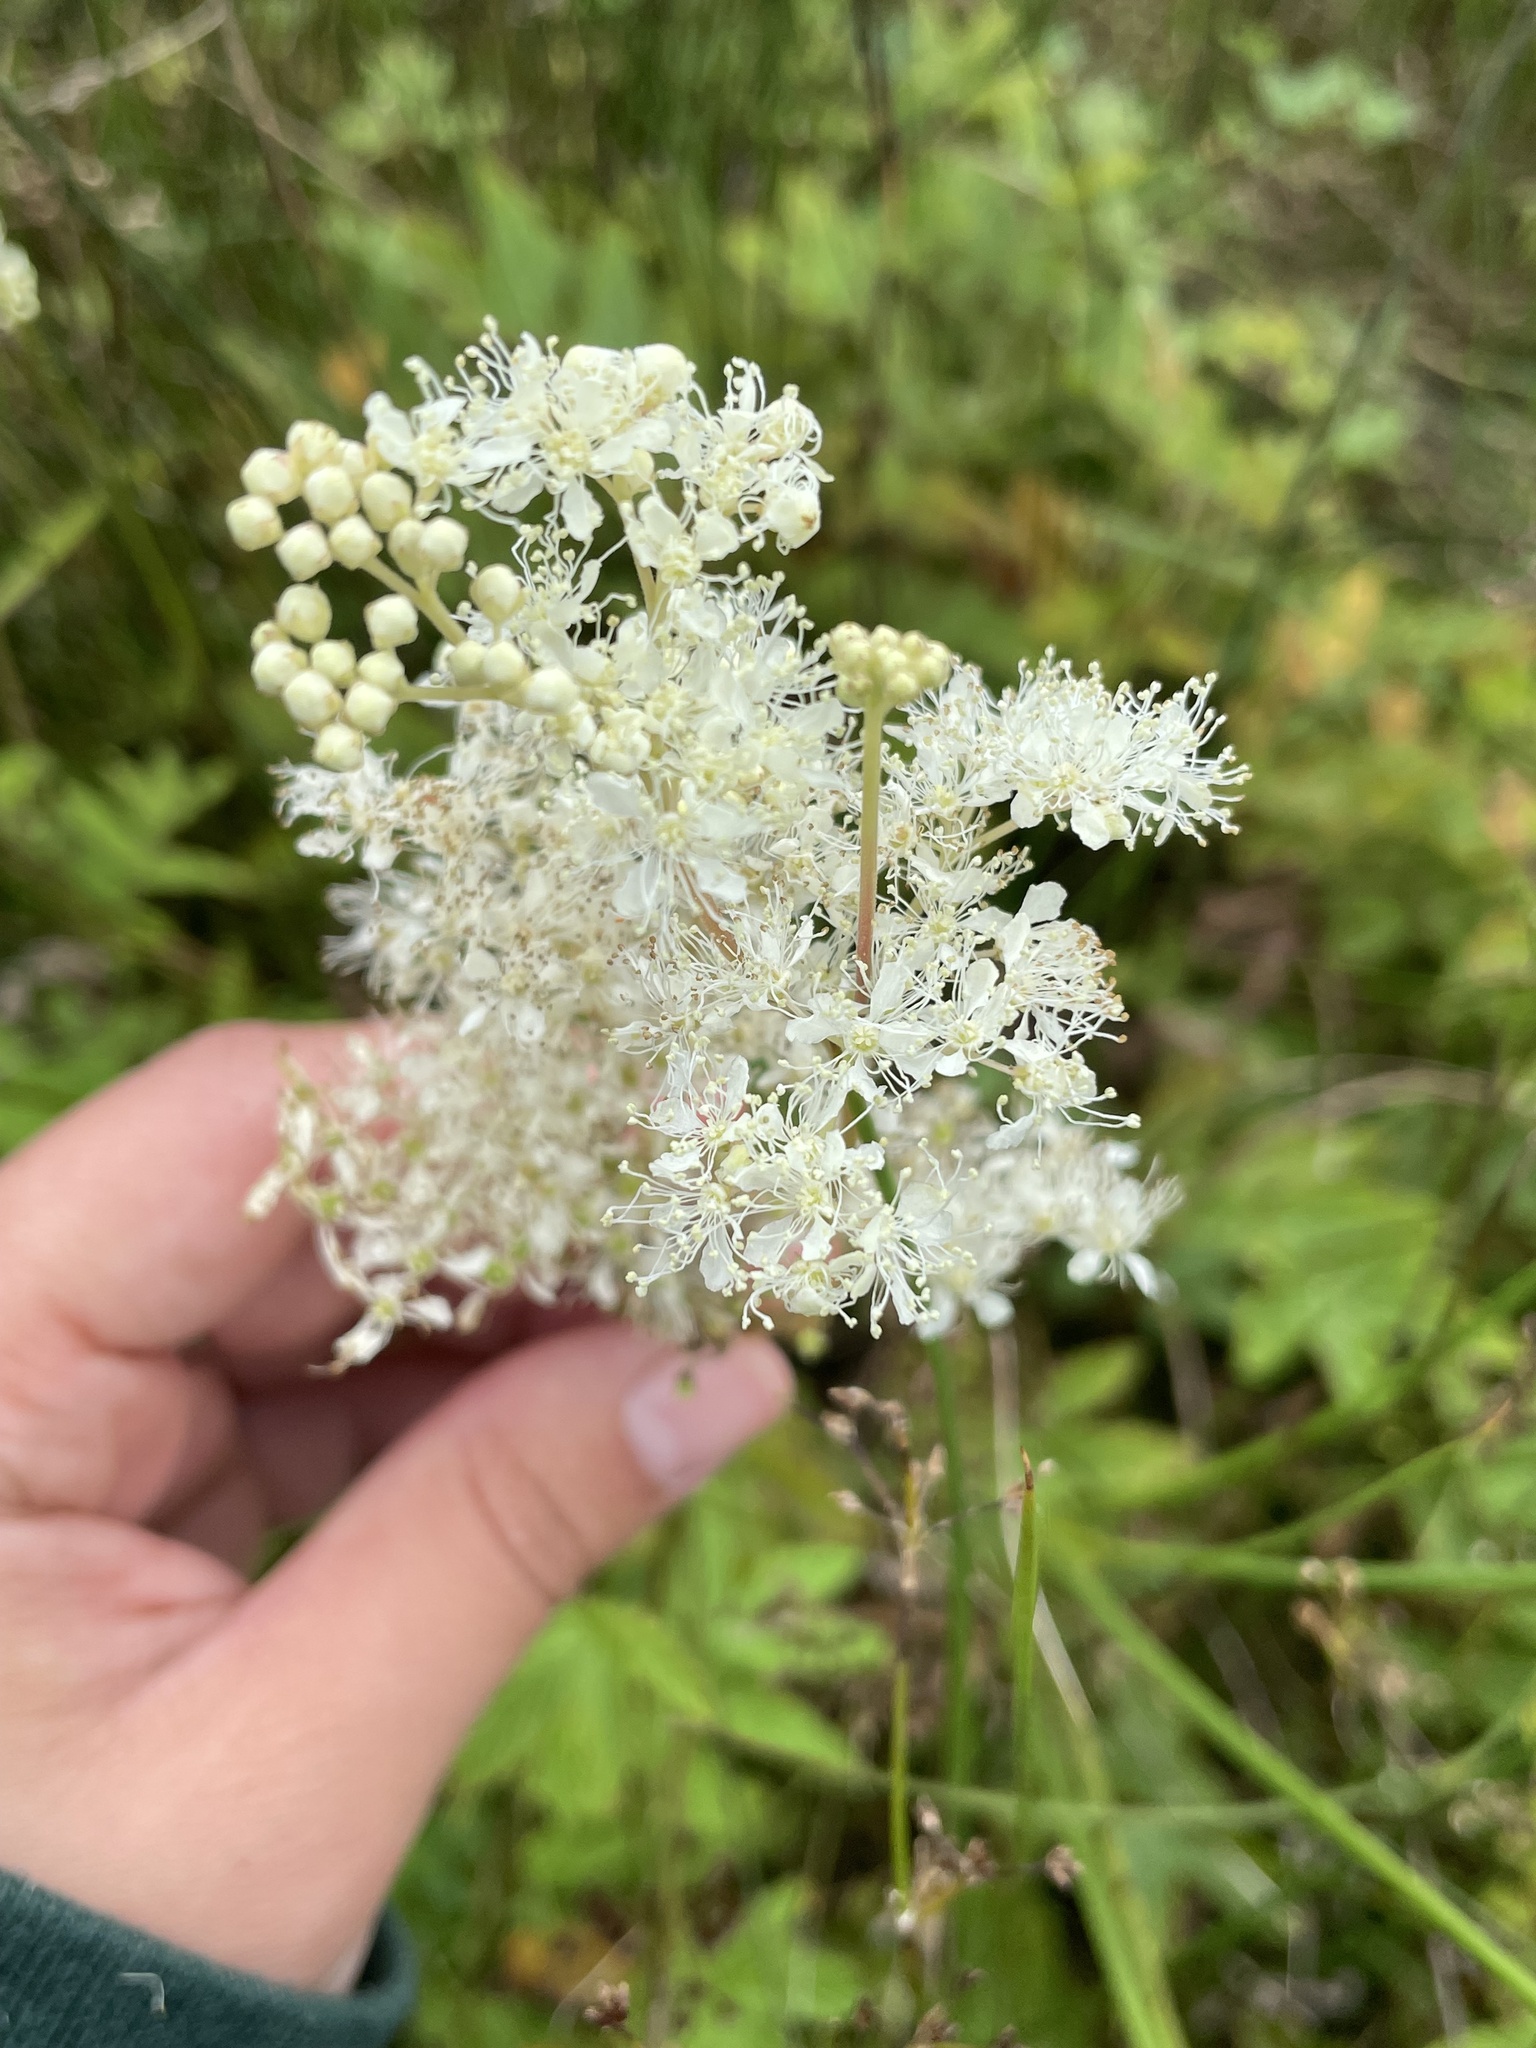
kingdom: Plantae
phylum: Tracheophyta
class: Magnoliopsida
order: Rosales
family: Rosaceae
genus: Filipendula
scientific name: Filipendula ulmaria
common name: Meadowsweet
